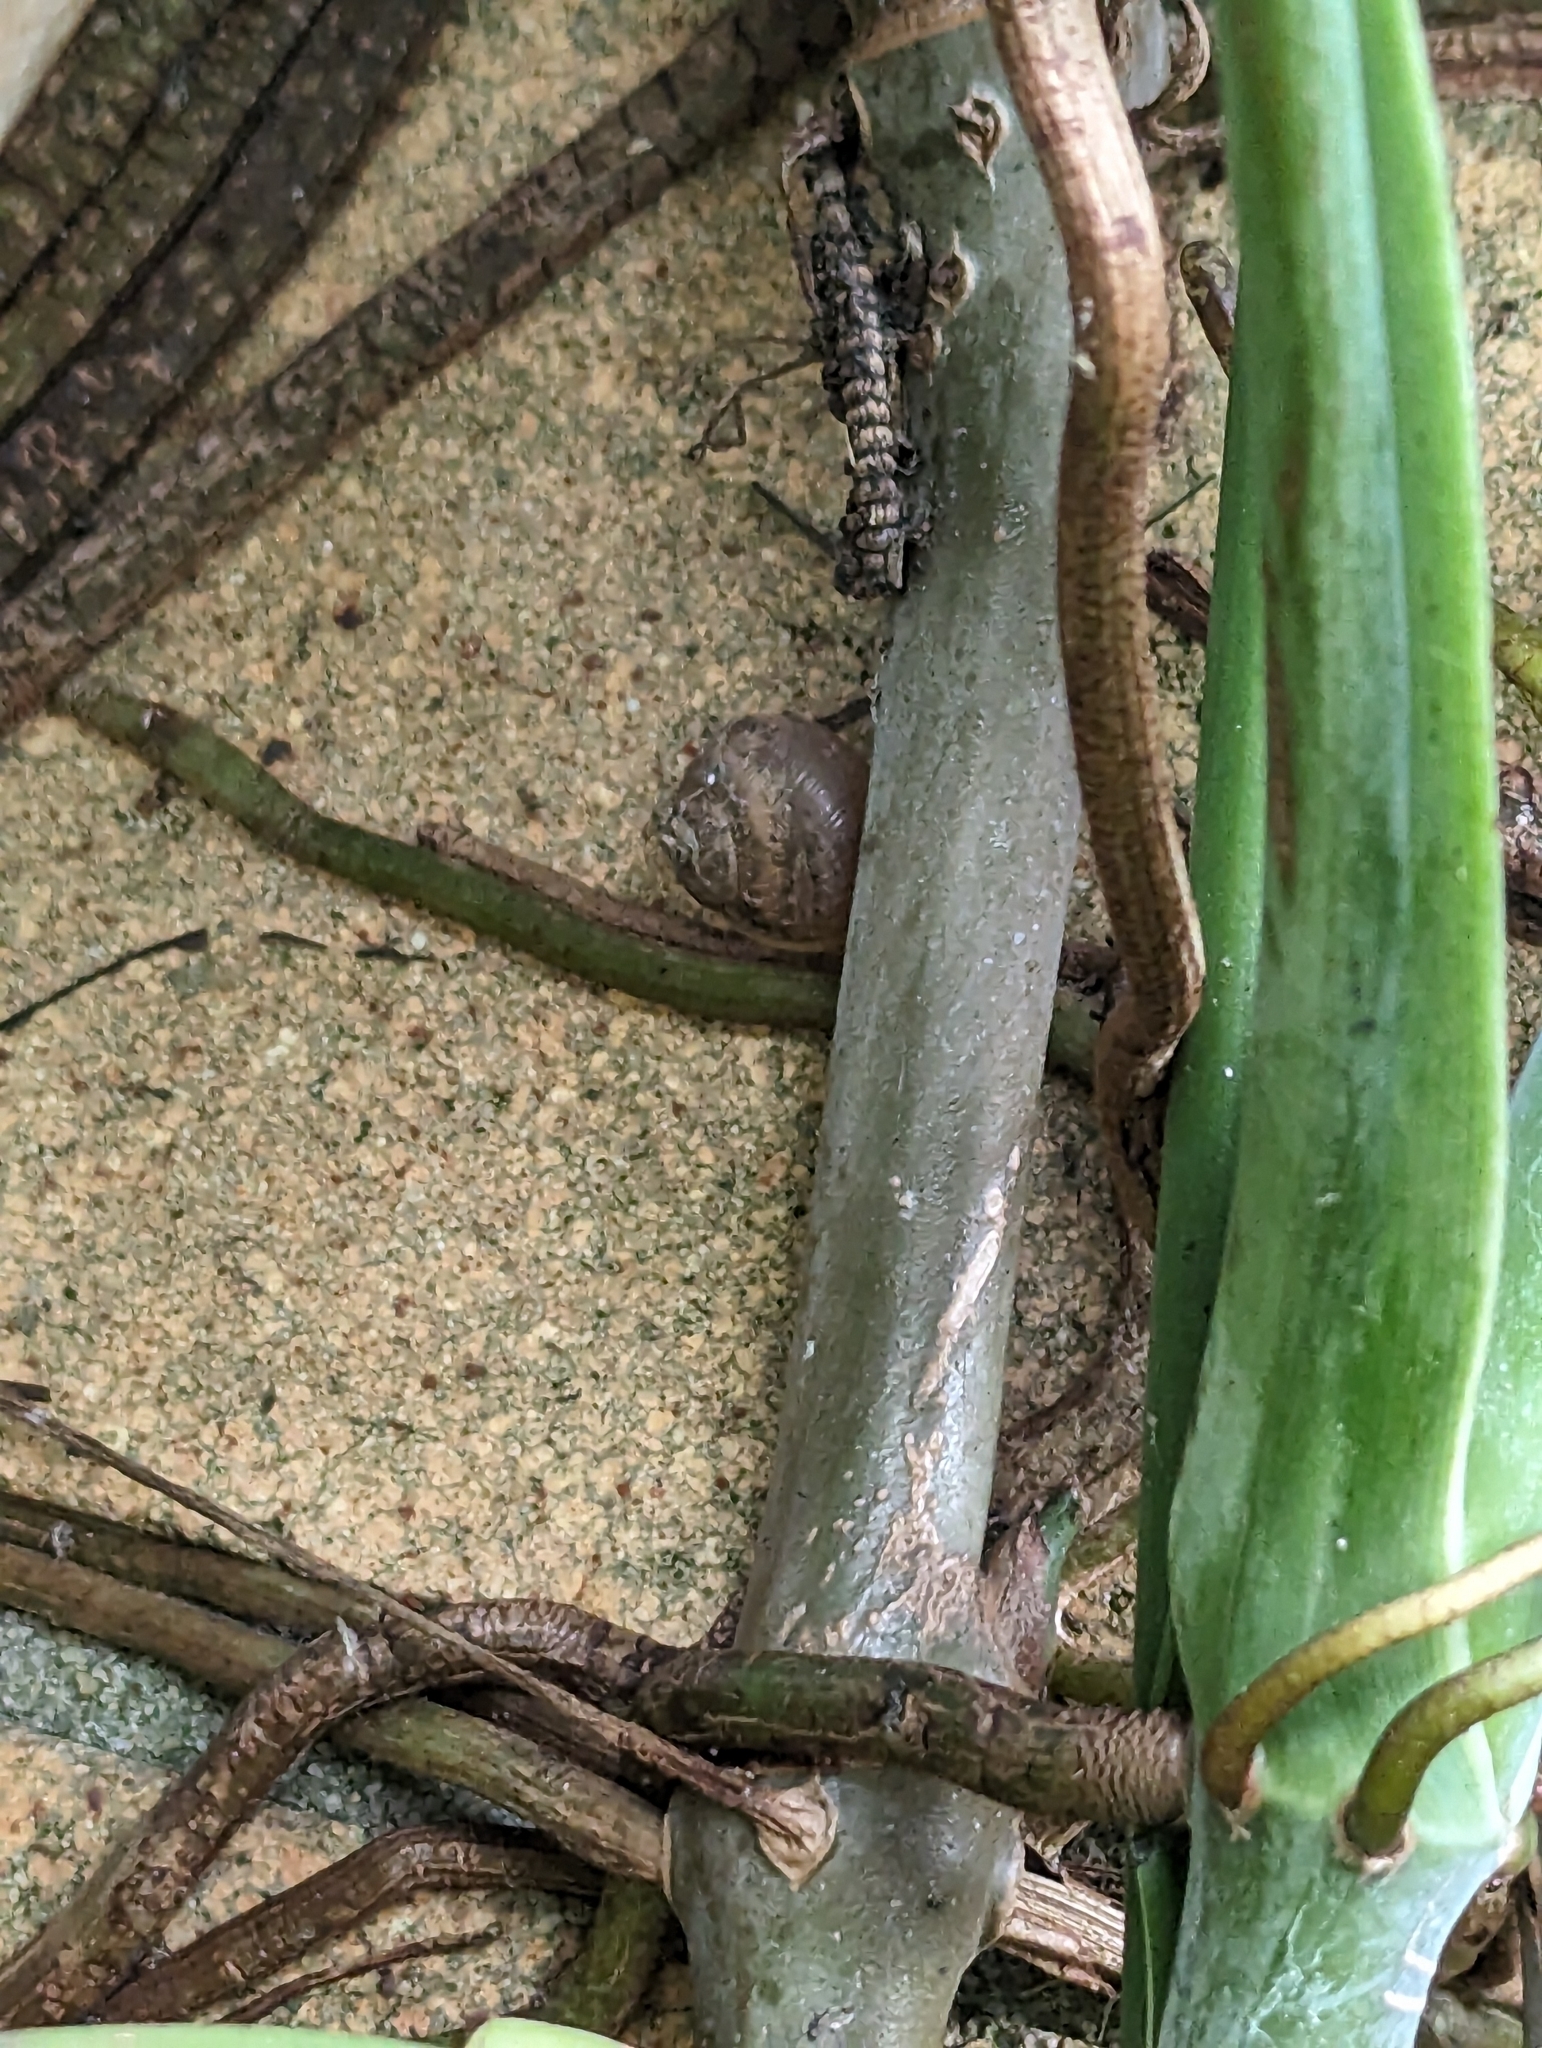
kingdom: Animalia
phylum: Mollusca
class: Gastropoda
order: Stylommatophora
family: Helicidae
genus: Cornu
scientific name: Cornu aspersum
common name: Brown garden snail
